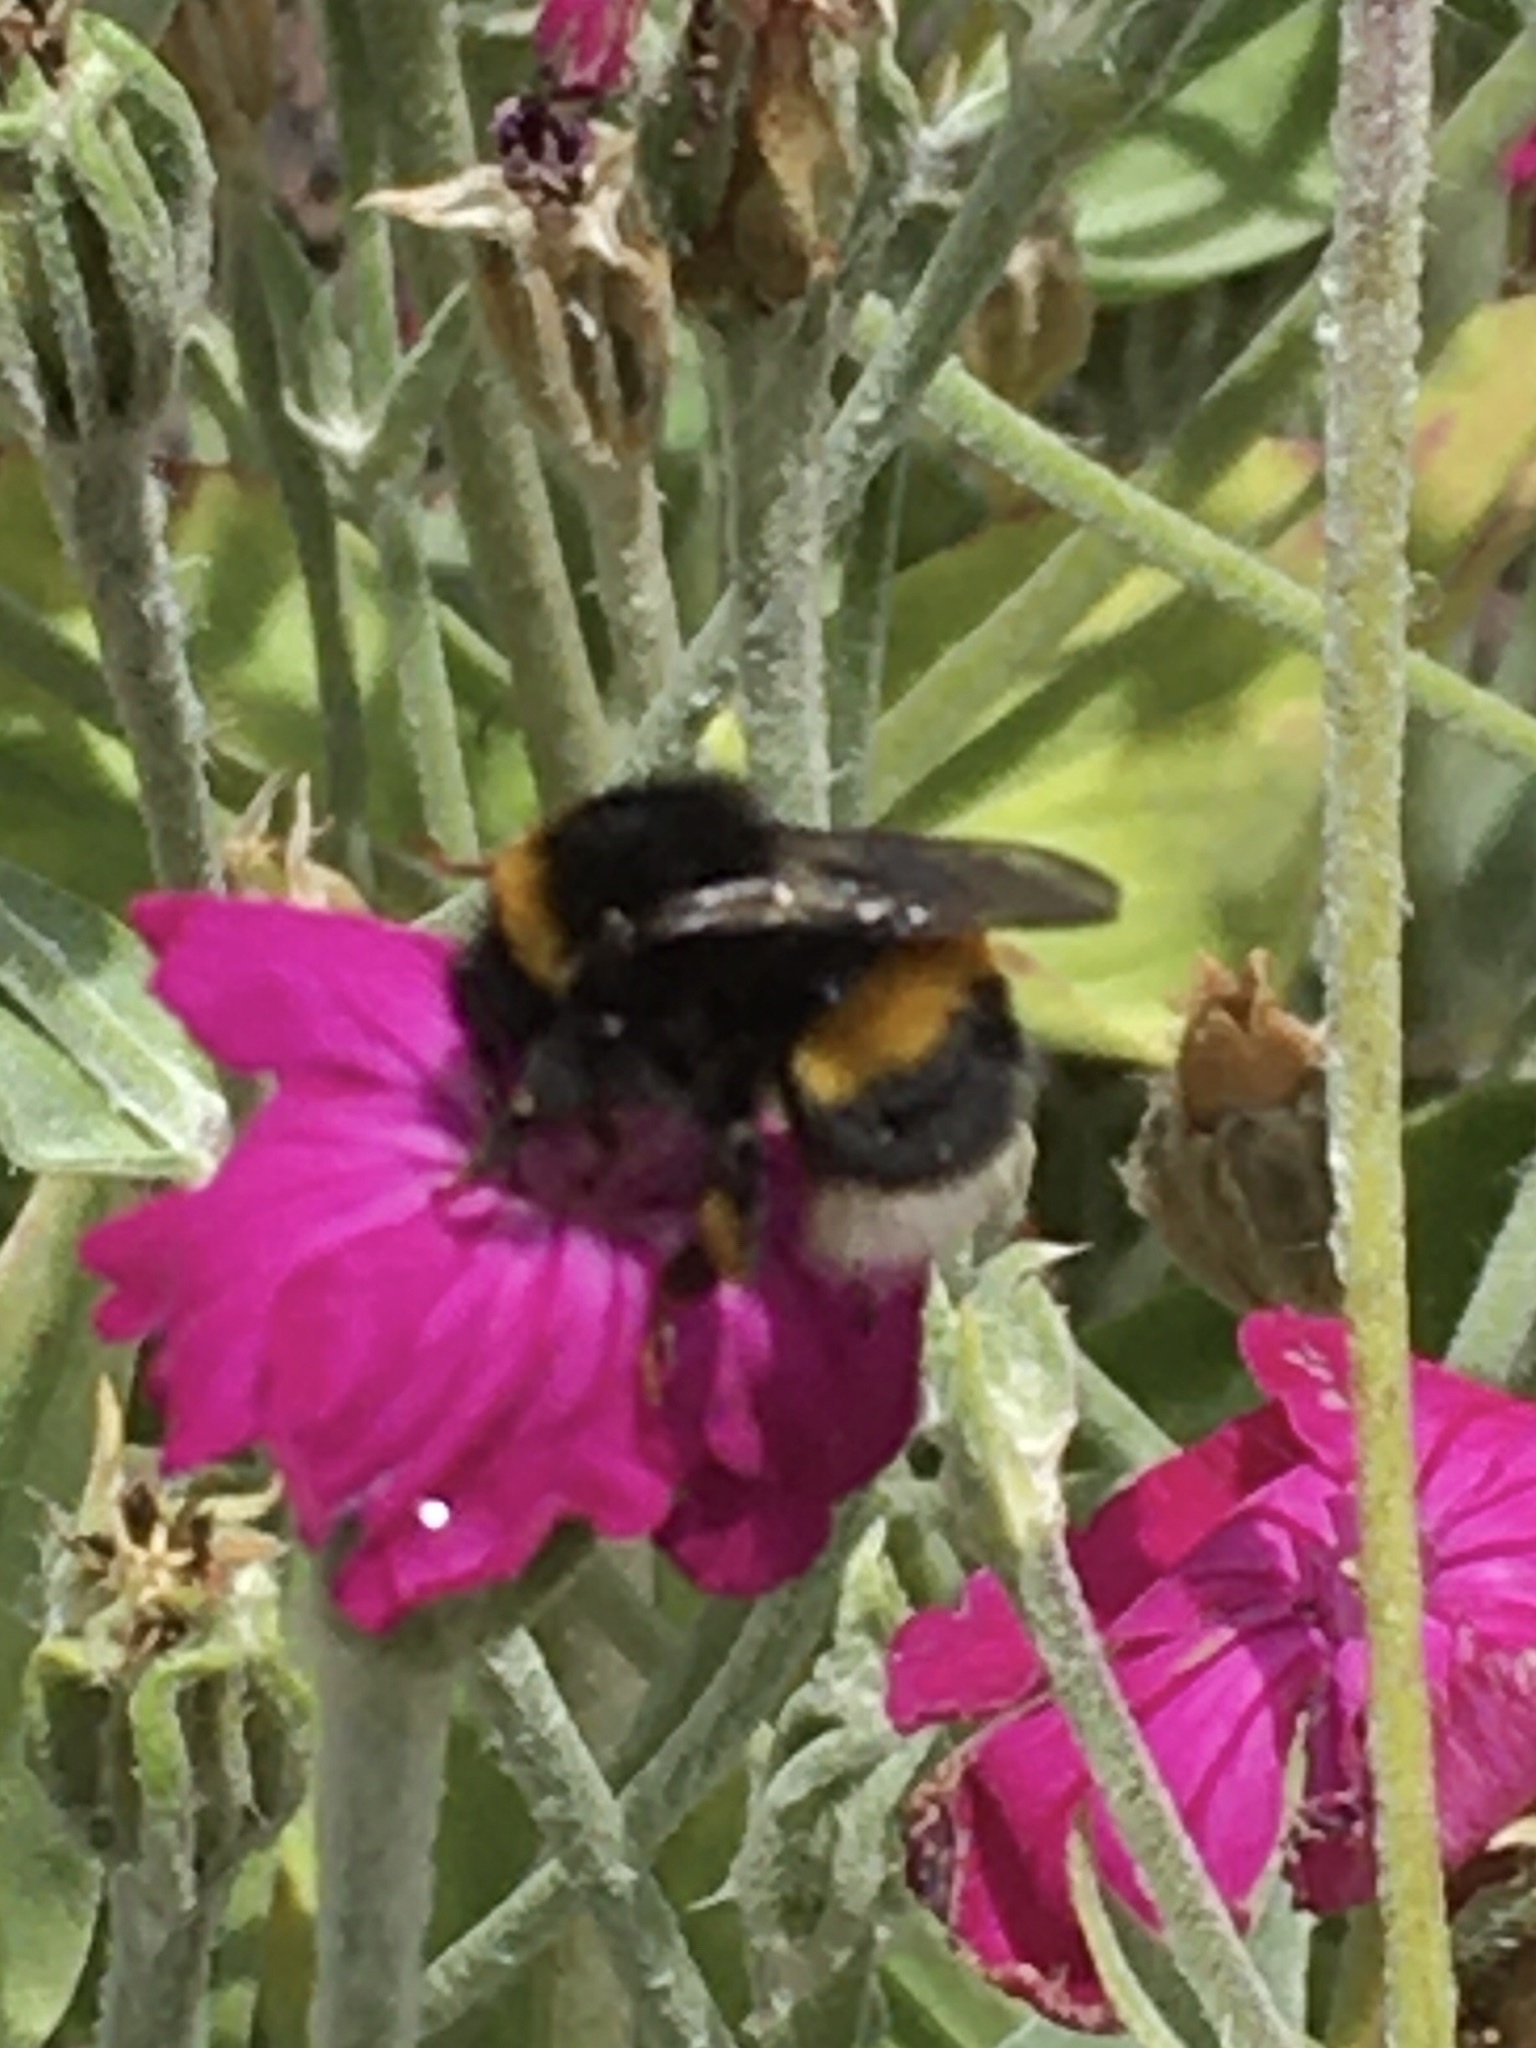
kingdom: Animalia
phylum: Arthropoda
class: Insecta
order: Hymenoptera
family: Apidae
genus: Bombus
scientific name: Bombus terrestris
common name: Buff-tailed bumblebee
